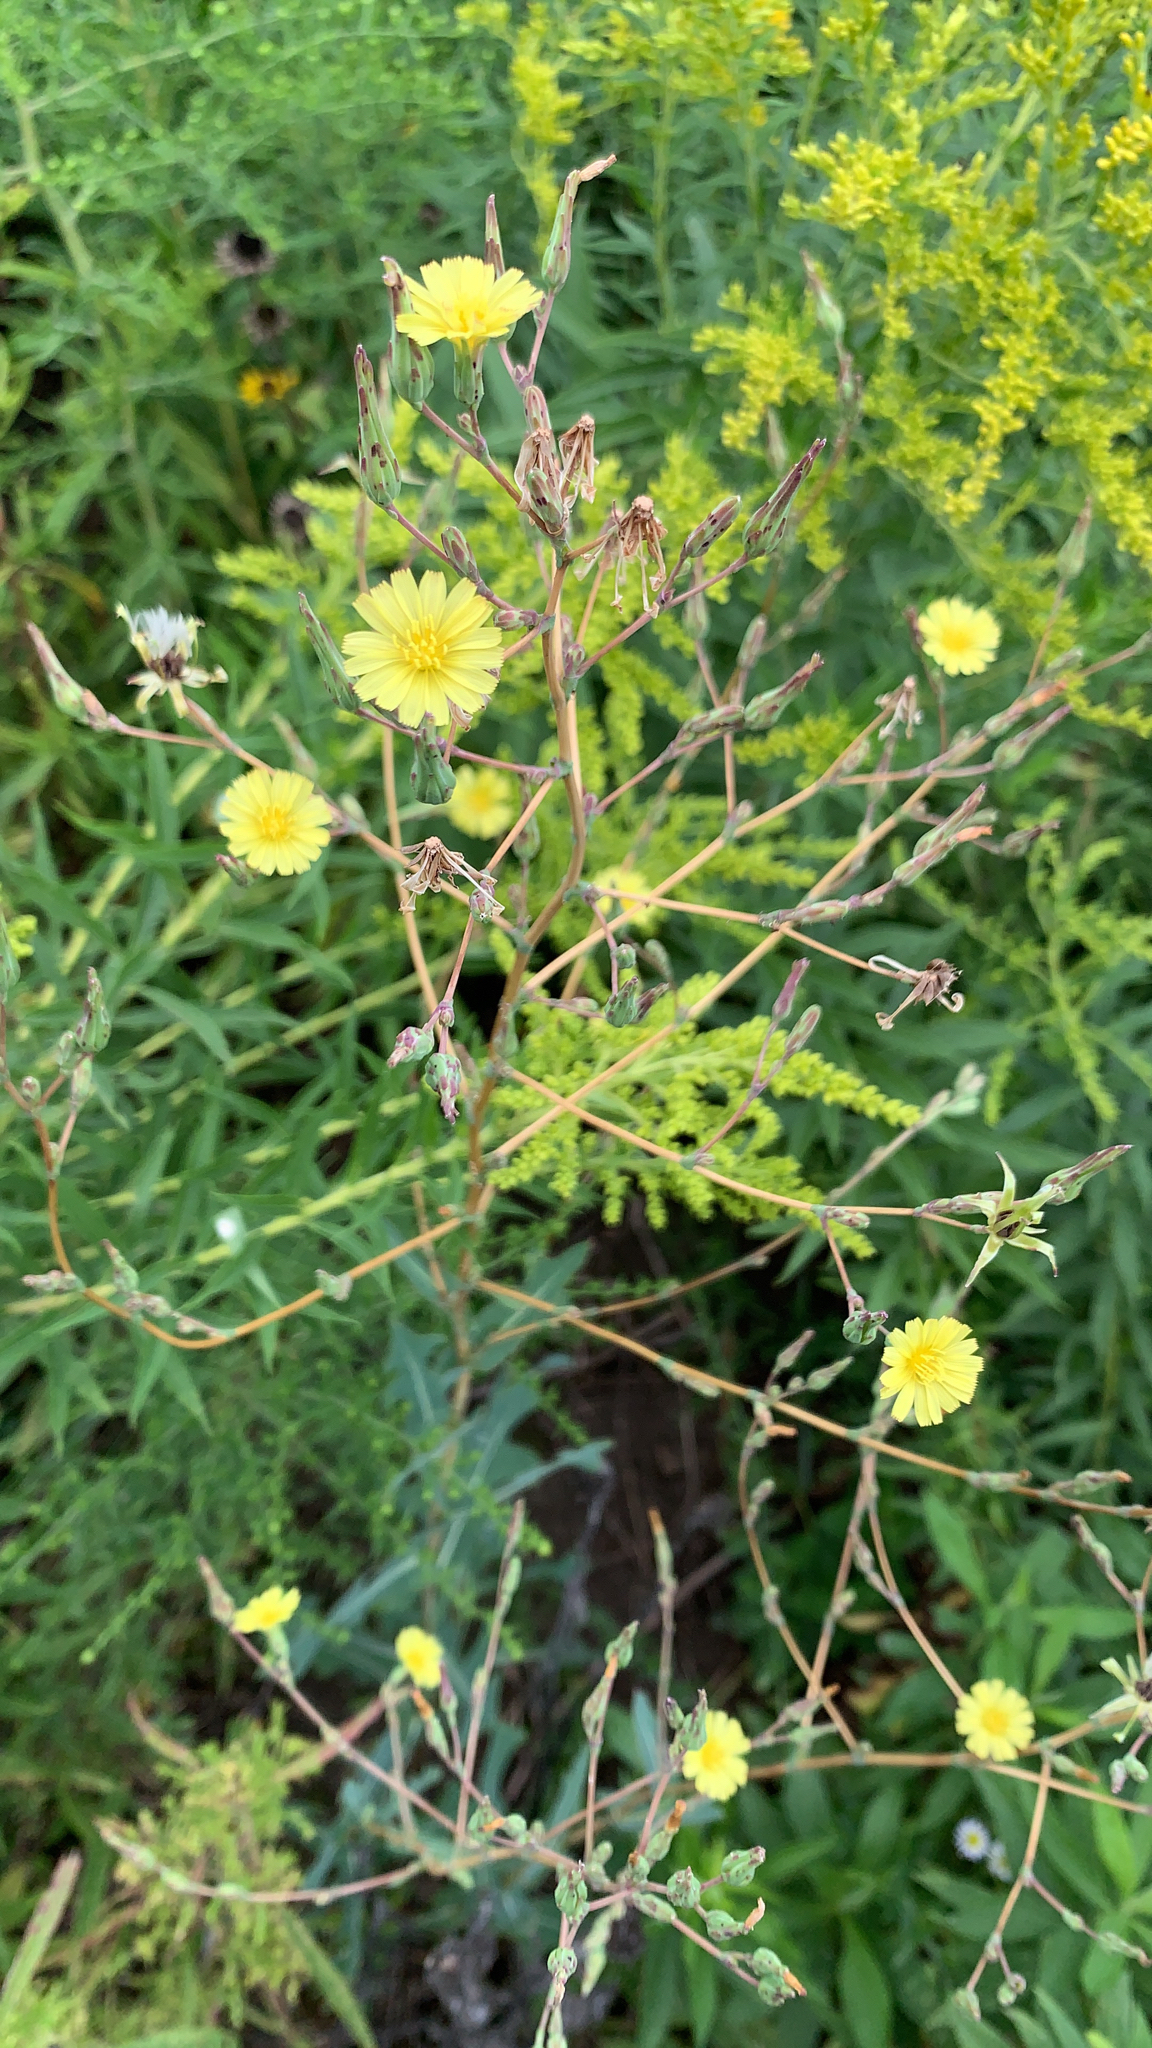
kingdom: Plantae
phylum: Tracheophyta
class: Magnoliopsida
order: Asterales
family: Asteraceae
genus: Lactuca
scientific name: Lactuca serriola
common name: Prickly lettuce
